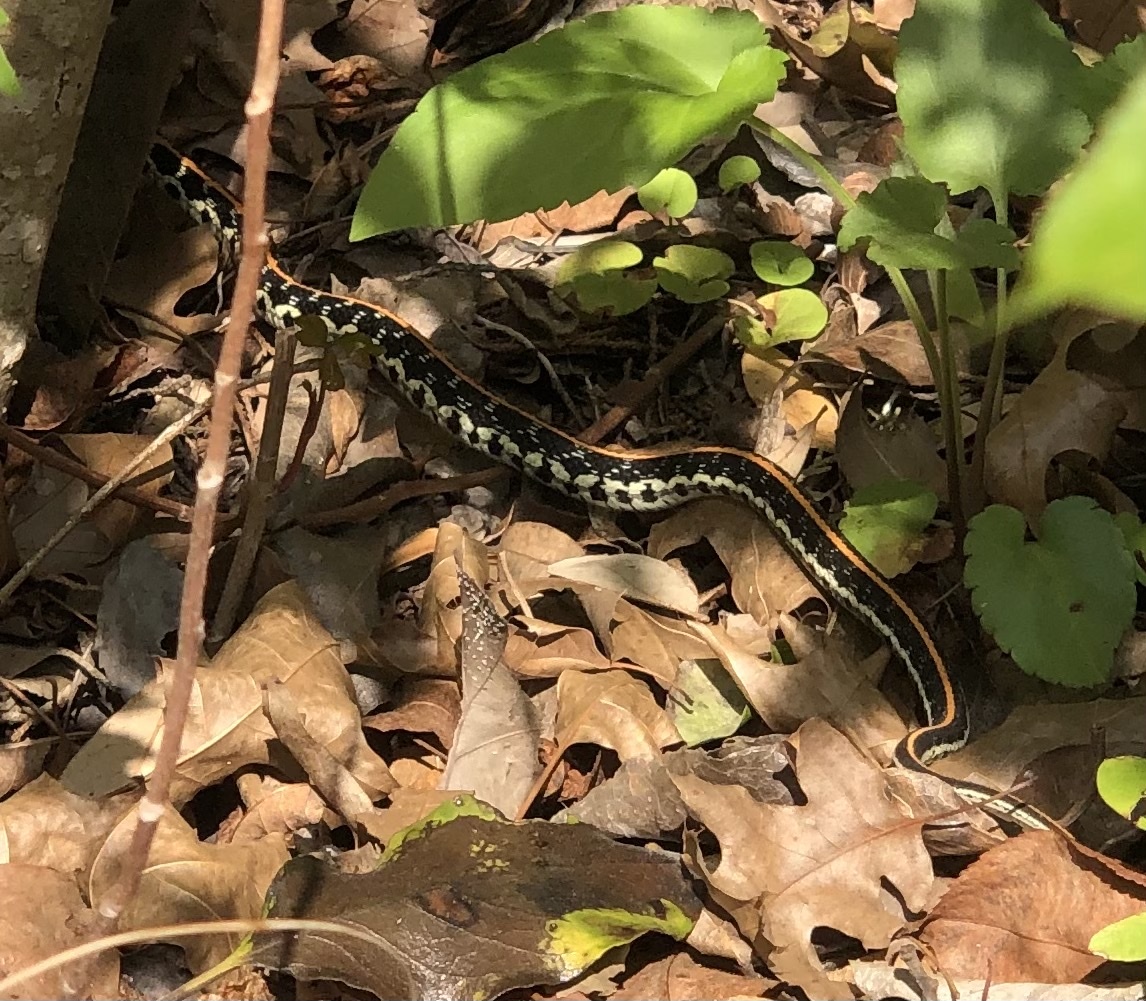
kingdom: Animalia
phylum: Chordata
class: Squamata
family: Colubridae
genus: Thamnophis
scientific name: Thamnophis cyrtopsis
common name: Black-necked gartersnake
